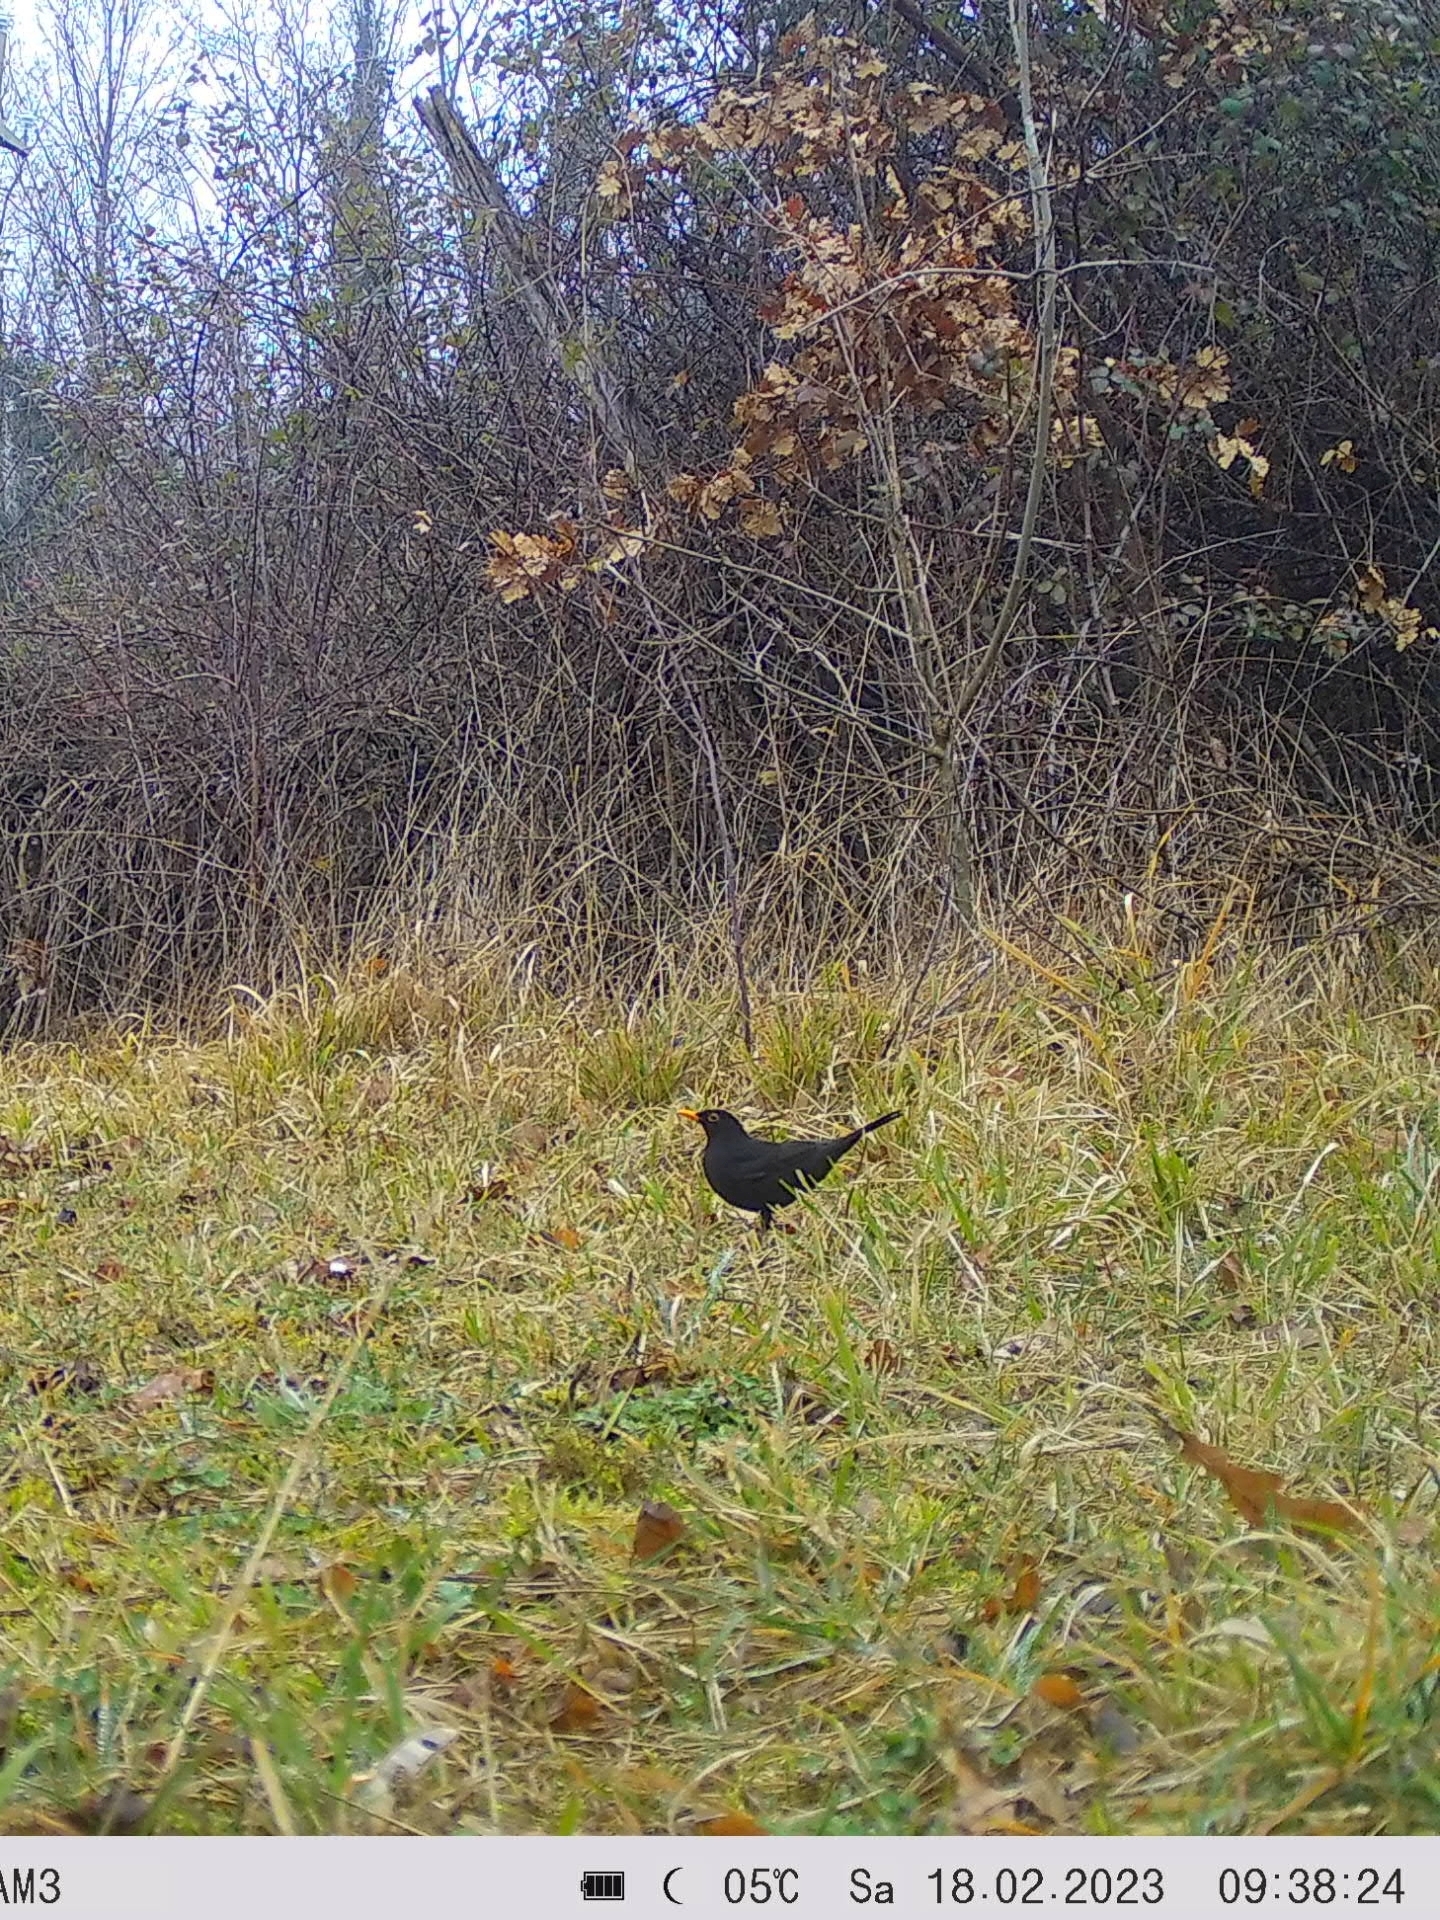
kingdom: Animalia
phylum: Chordata
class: Aves
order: Passeriformes
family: Turdidae
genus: Turdus
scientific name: Turdus merula
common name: Common blackbird
